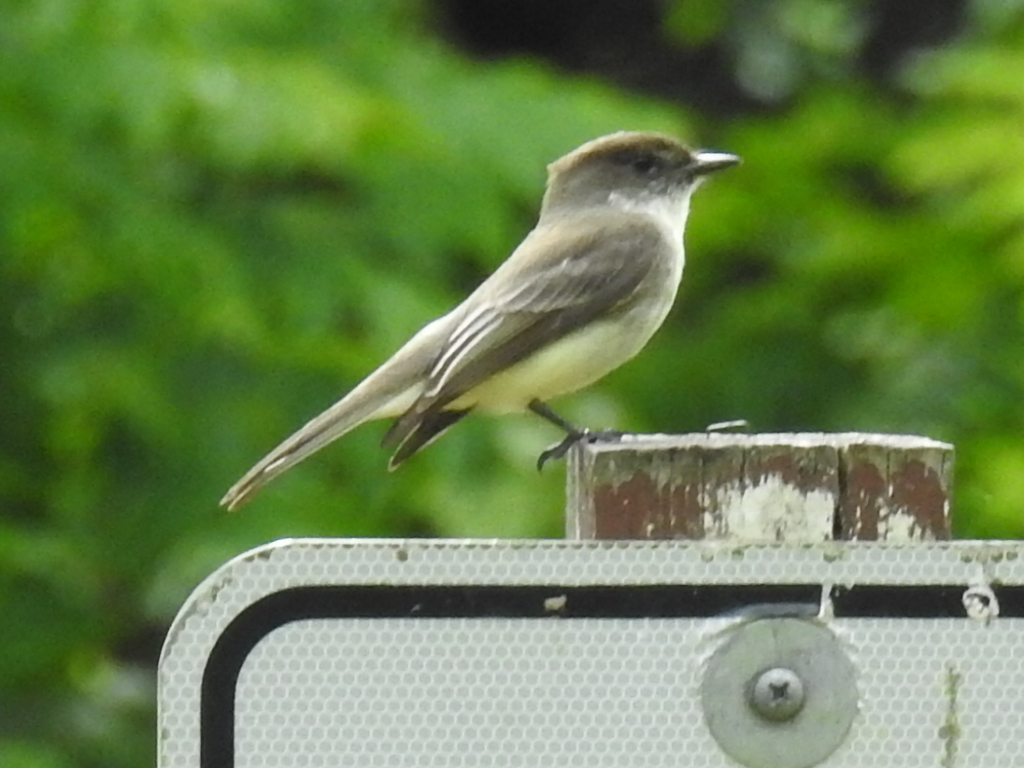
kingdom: Animalia
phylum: Chordata
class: Aves
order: Passeriformes
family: Tyrannidae
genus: Sayornis
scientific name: Sayornis phoebe
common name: Eastern phoebe
